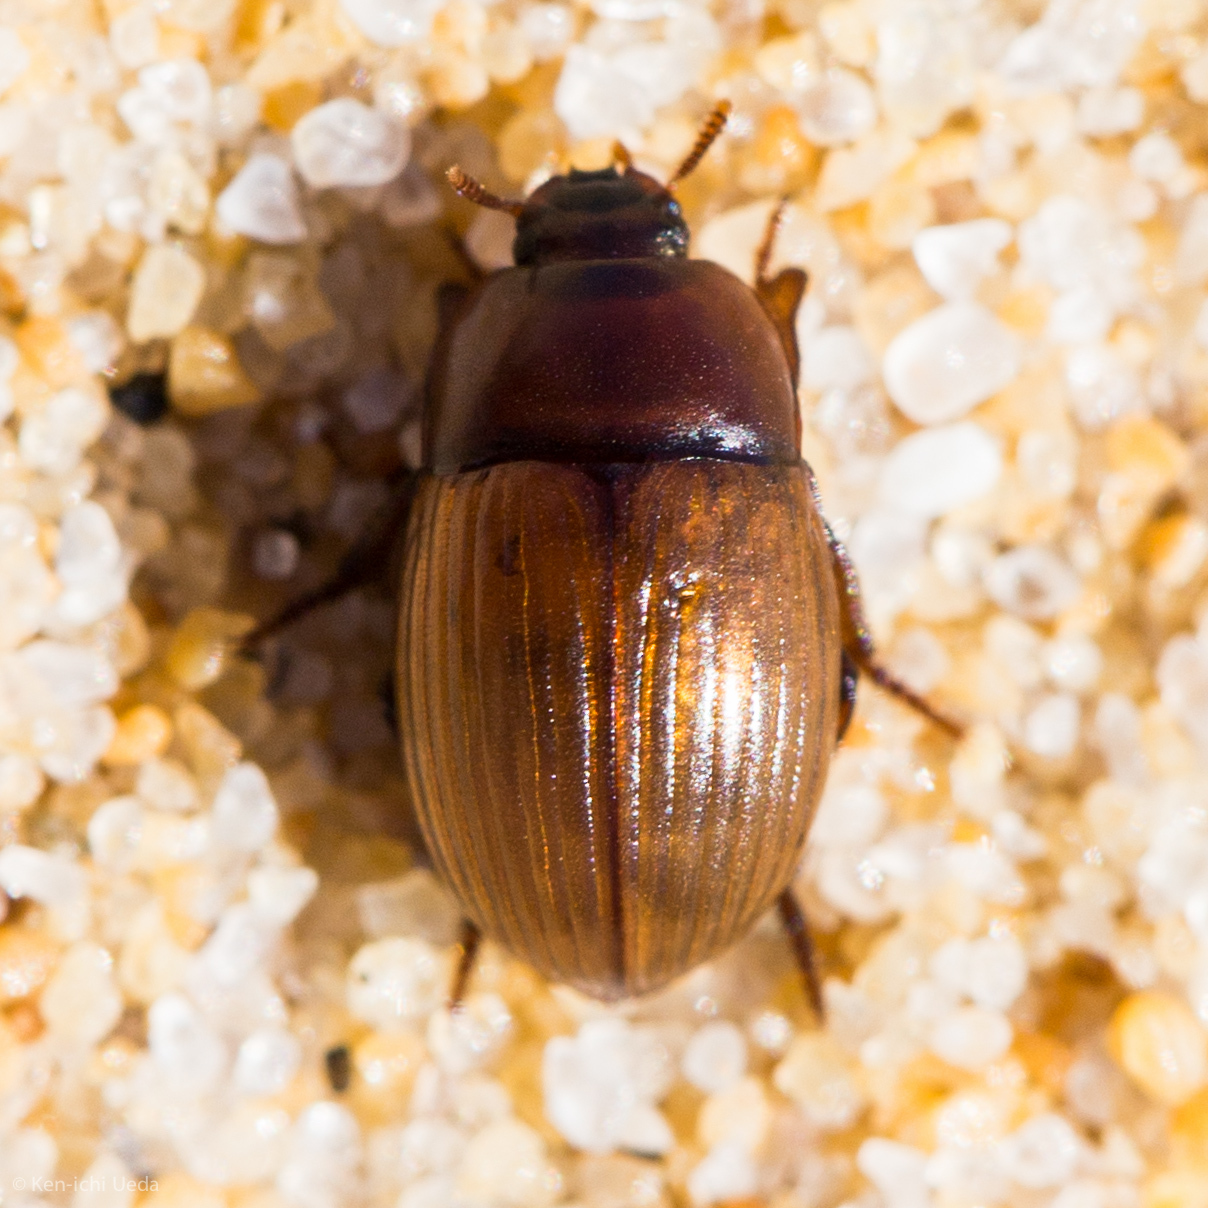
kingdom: Animalia
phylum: Arthropoda
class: Insecta
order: Coleoptera
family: Tenebrionidae
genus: Scymena
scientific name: Scymena
